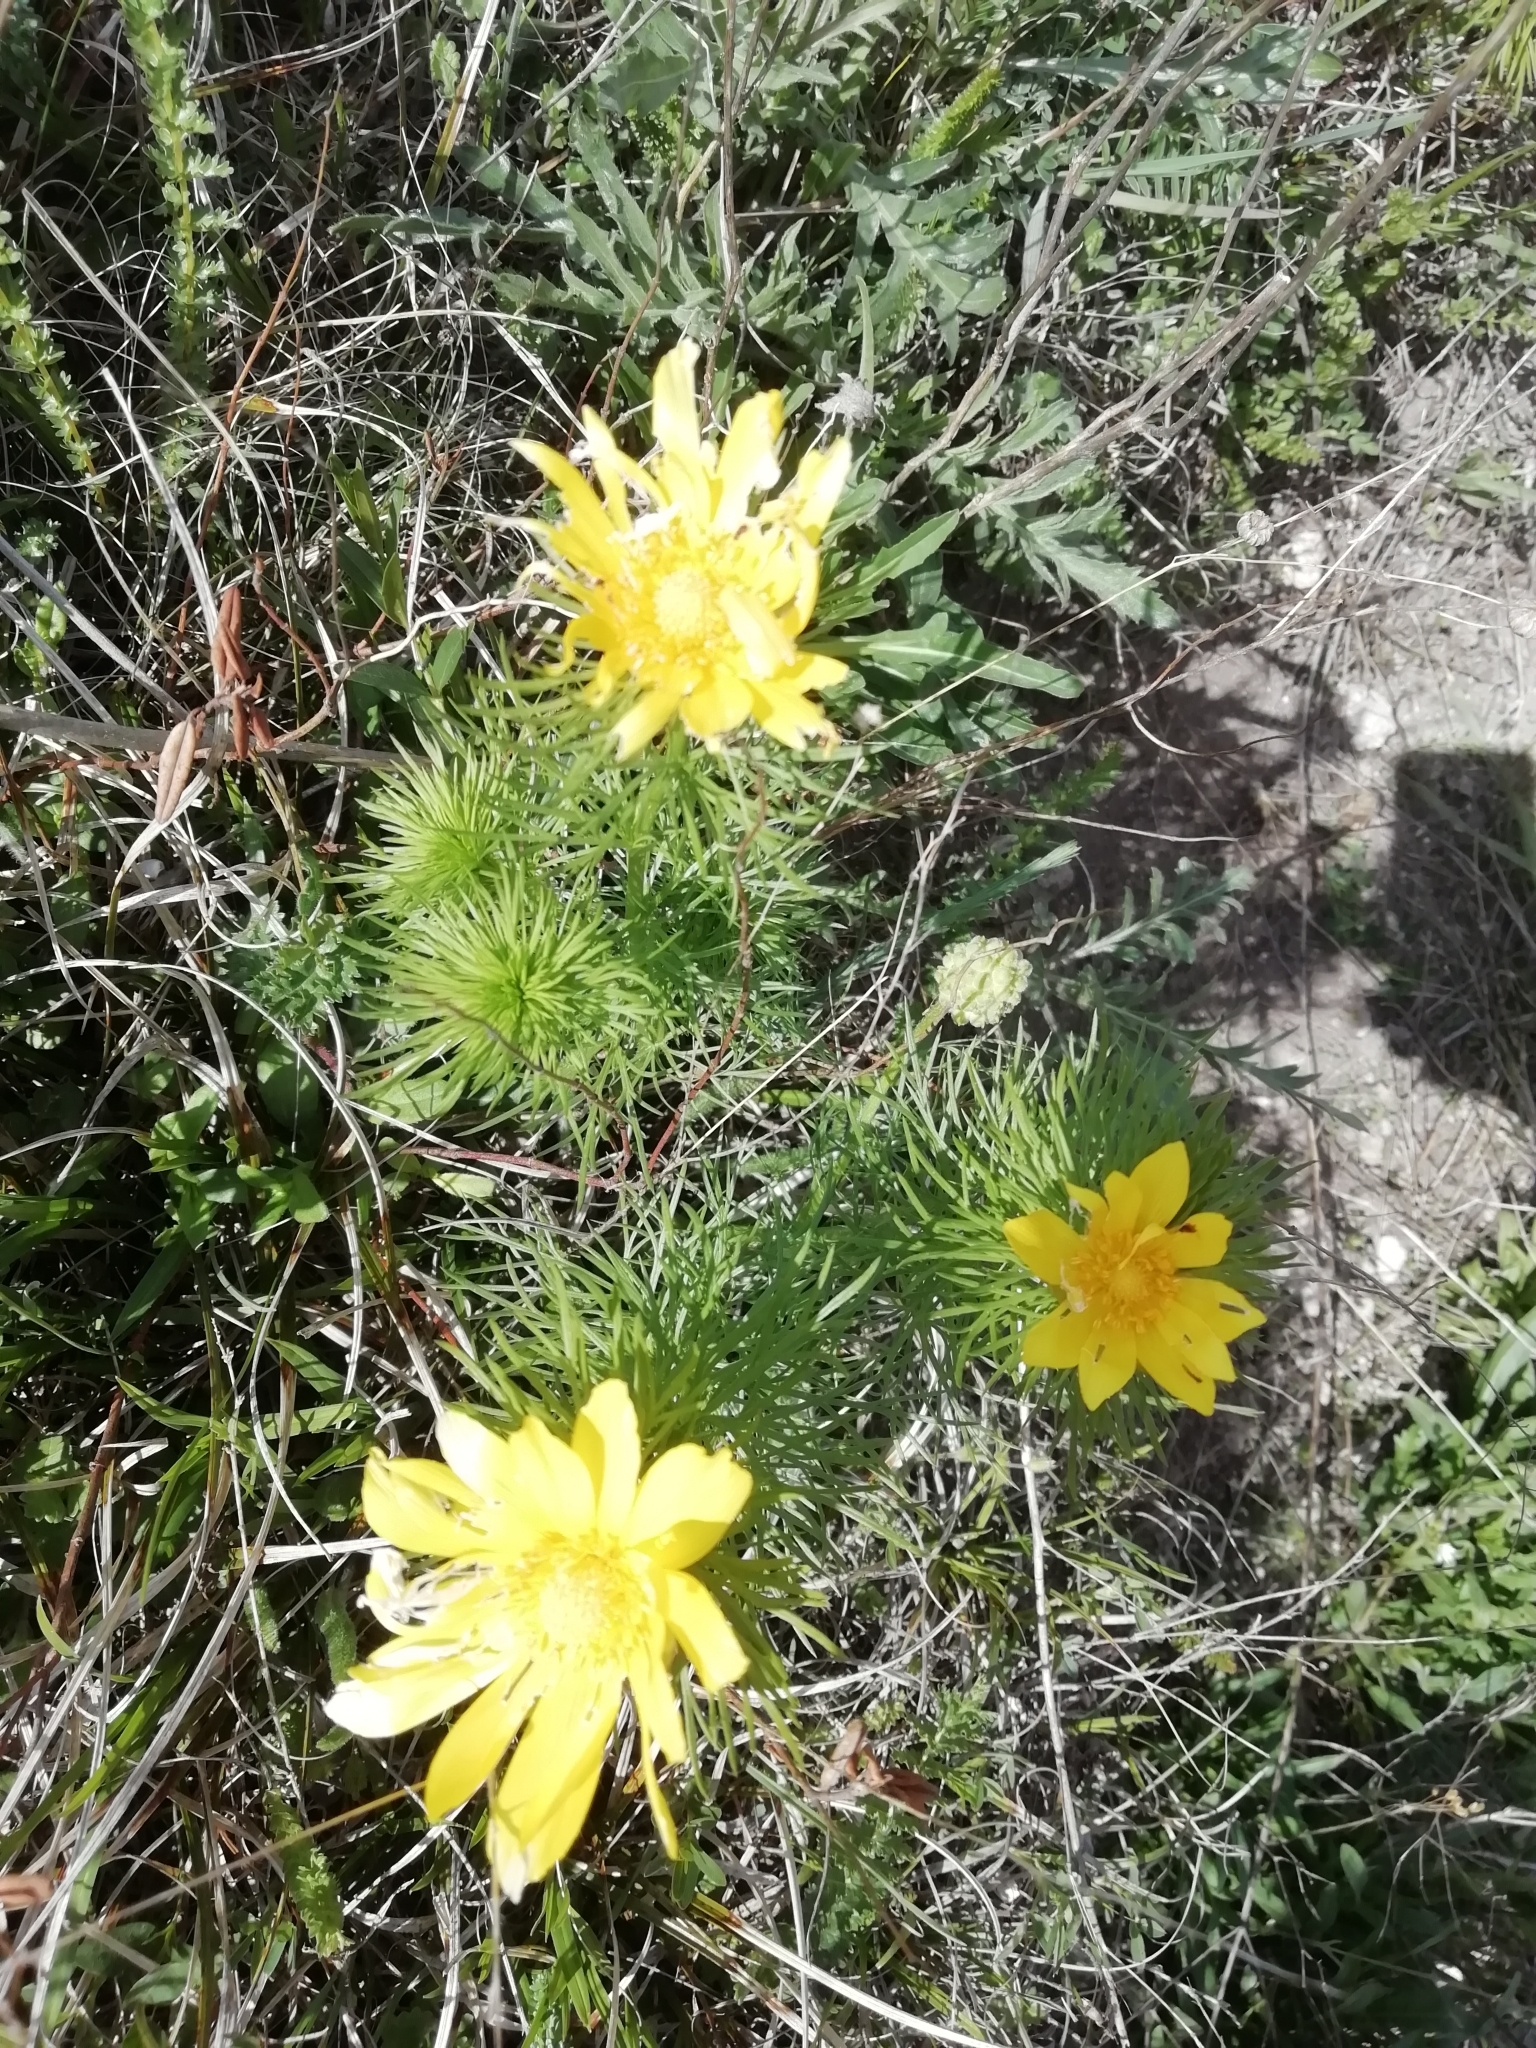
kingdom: Plantae
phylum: Tracheophyta
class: Magnoliopsida
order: Ranunculales
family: Ranunculaceae
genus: Adonis
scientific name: Adonis vernalis
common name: Yellow pheasants-eye
